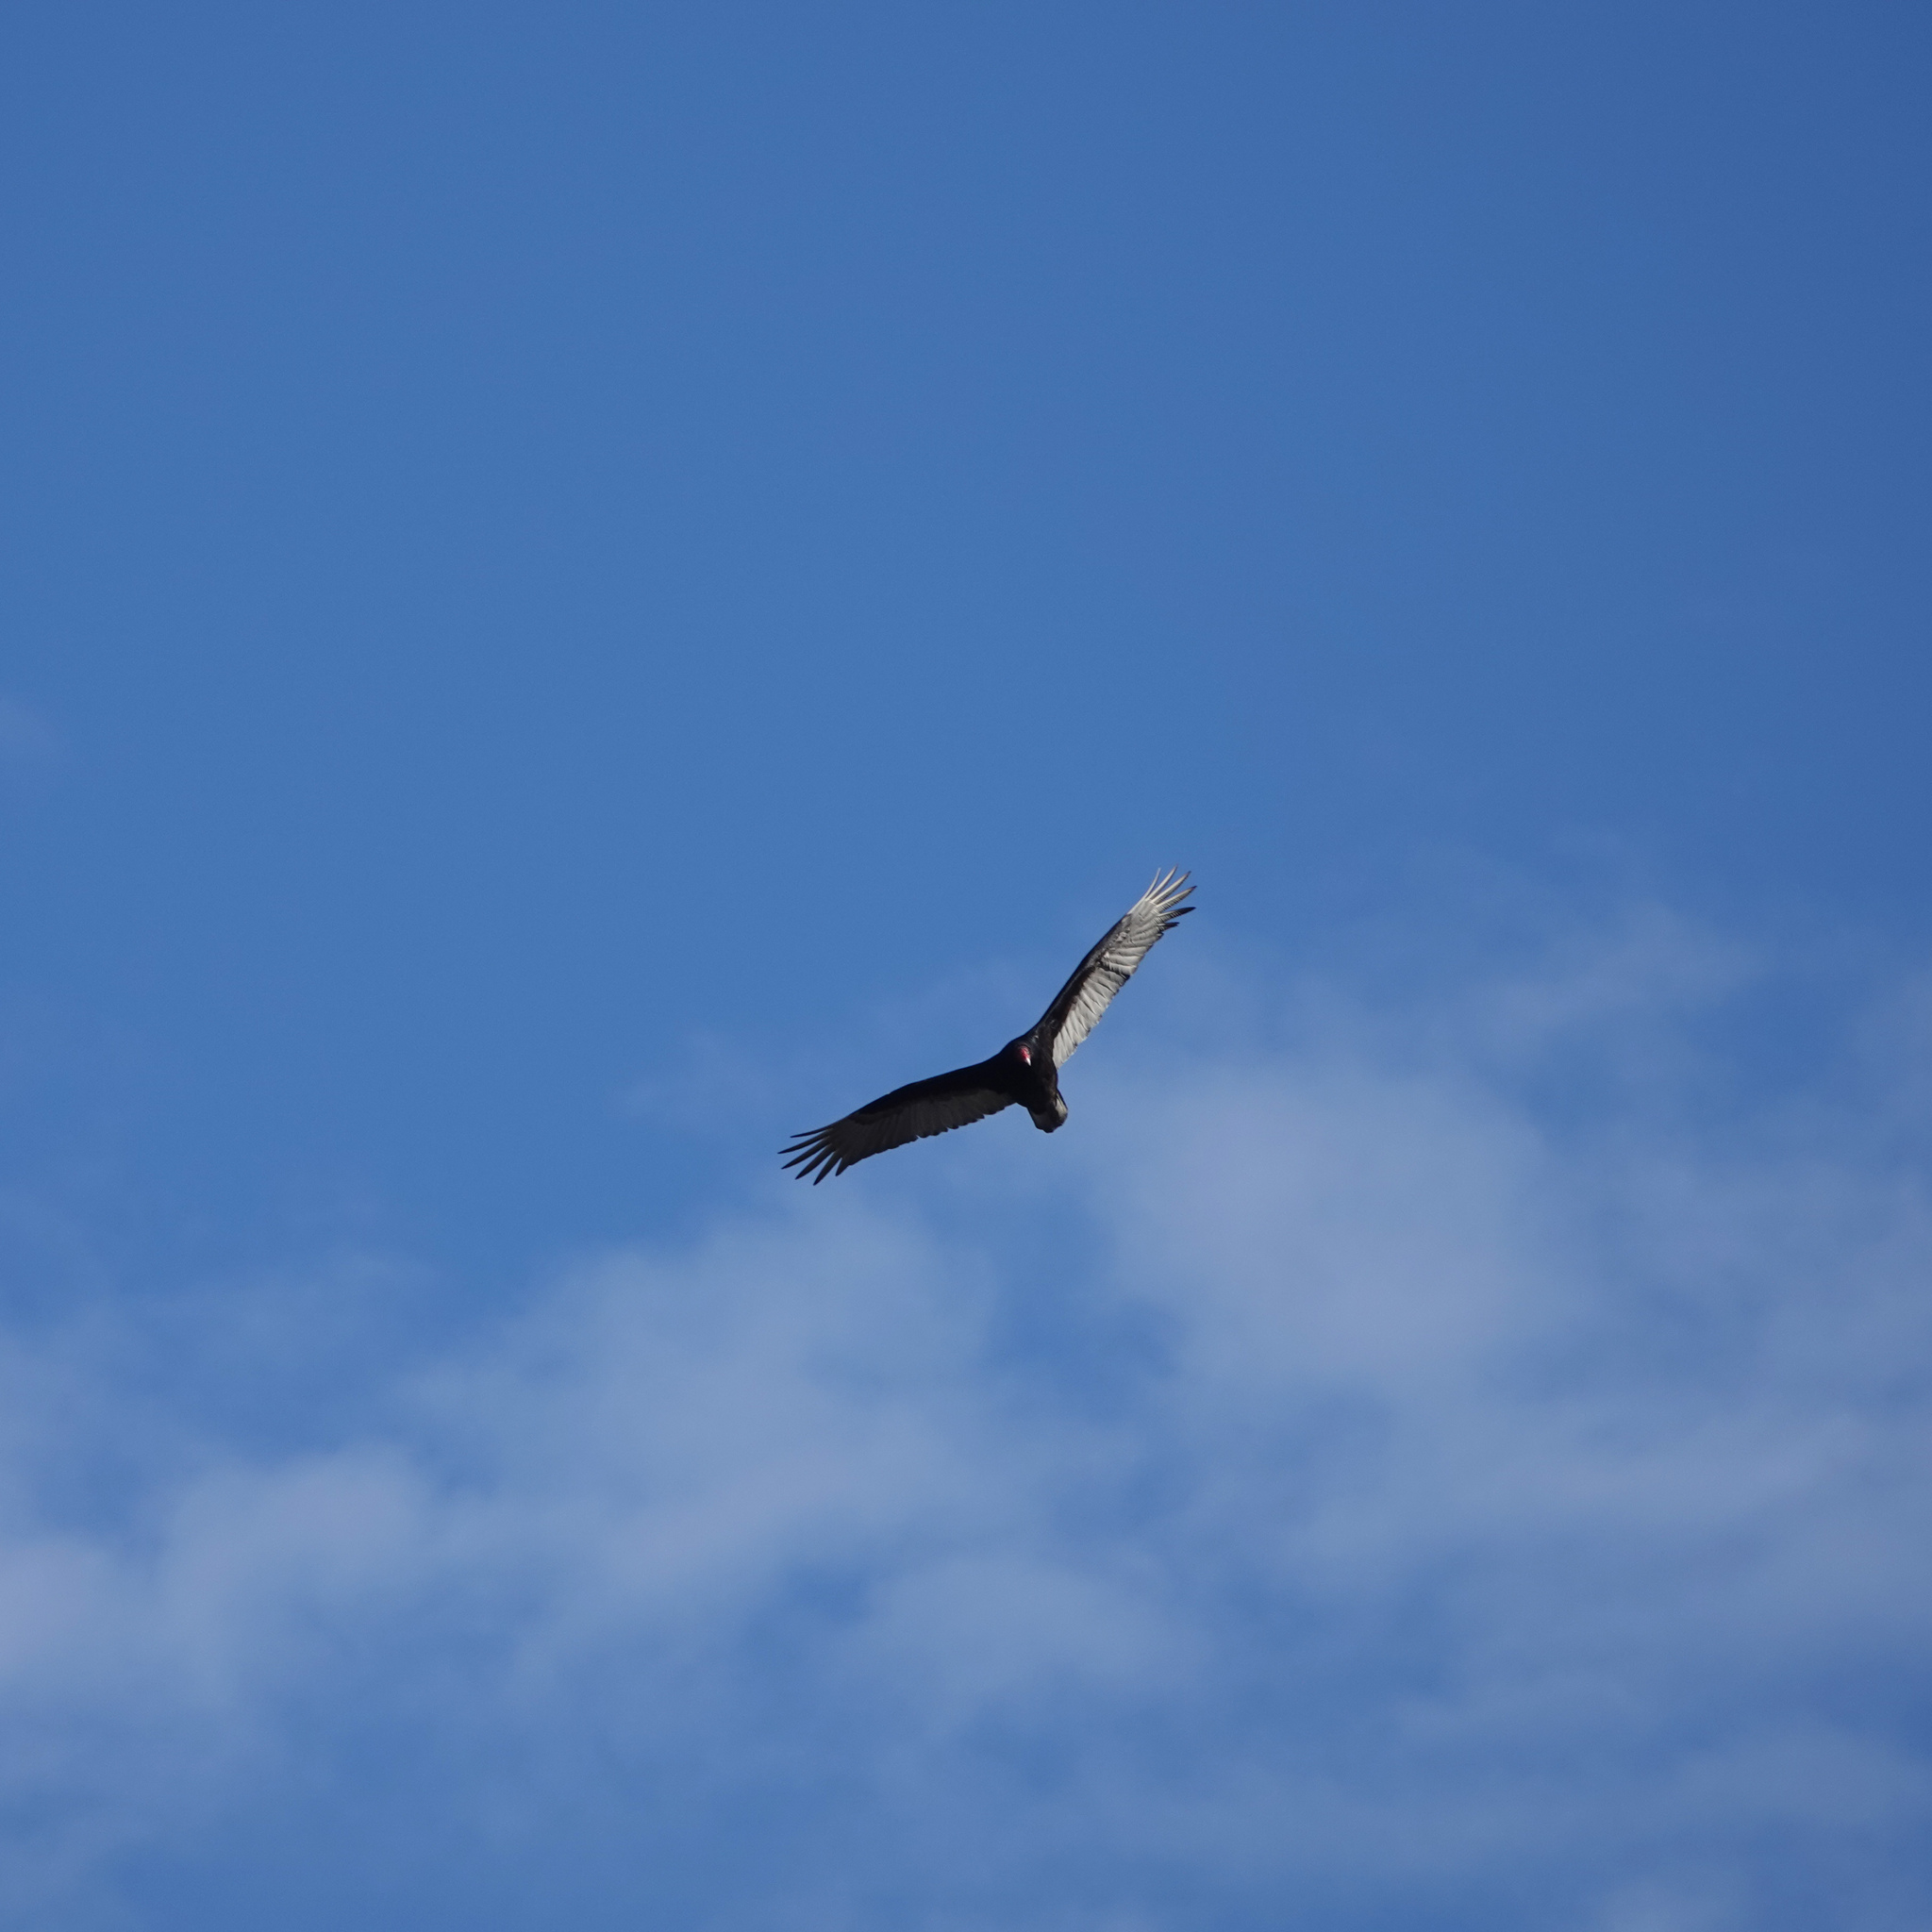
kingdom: Animalia
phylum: Chordata
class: Aves
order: Accipitriformes
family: Cathartidae
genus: Cathartes
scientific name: Cathartes aura
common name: Turkey vulture
